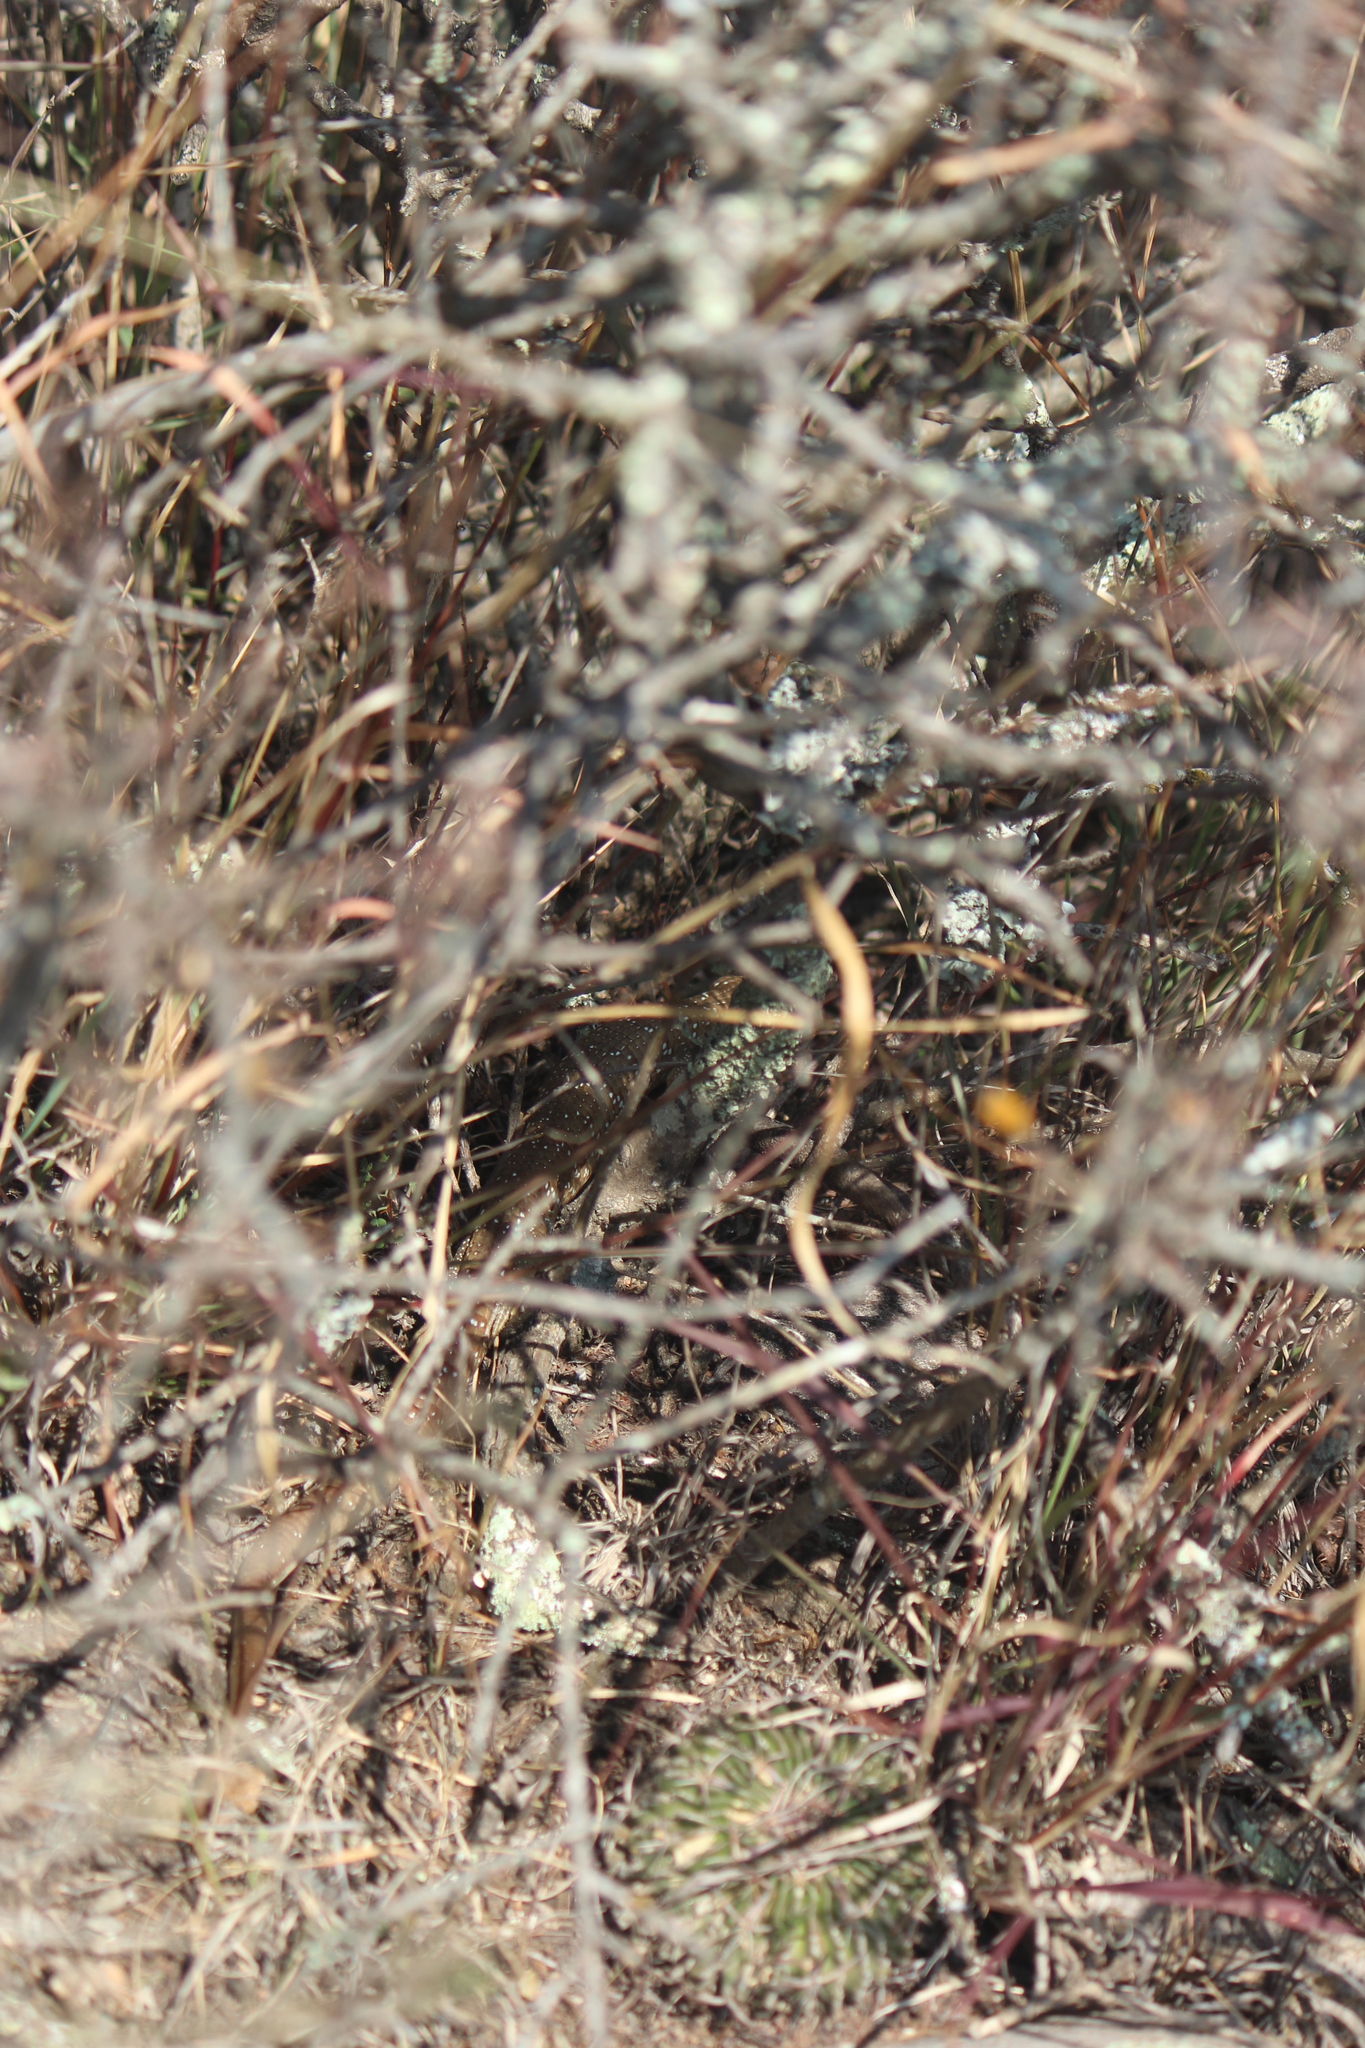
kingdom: Animalia
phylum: Chordata
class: Squamata
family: Anguidae
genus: Gerrhonotus
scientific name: Gerrhonotus ophiurus
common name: Snake lizard
